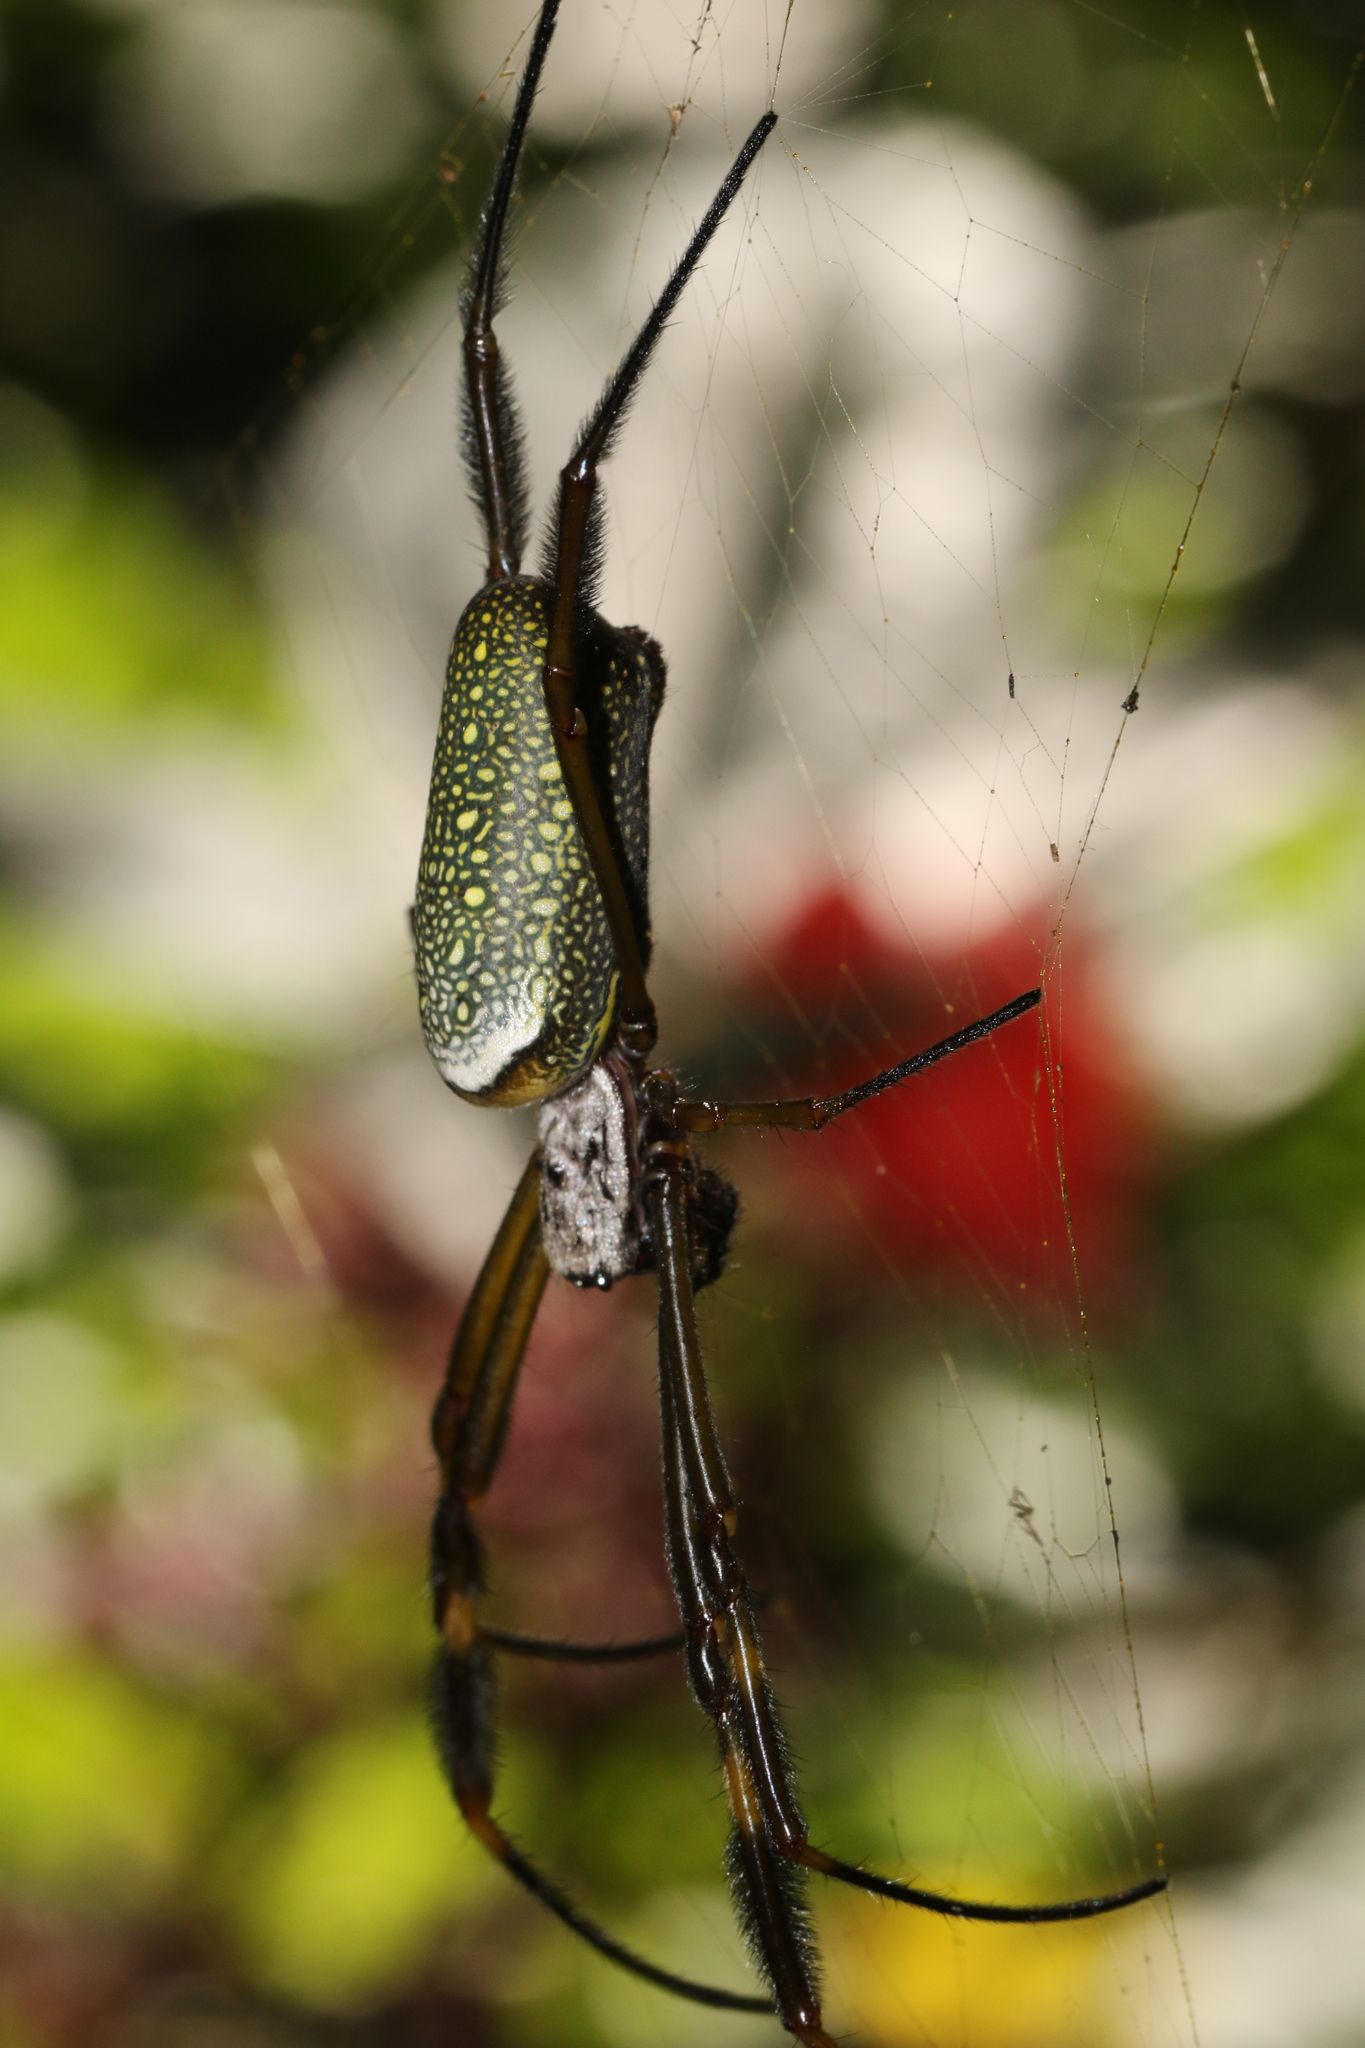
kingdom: Animalia
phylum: Arthropoda
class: Arachnida
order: Araneae
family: Araneidae
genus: Trichonephila
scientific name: Trichonephila clavipes
